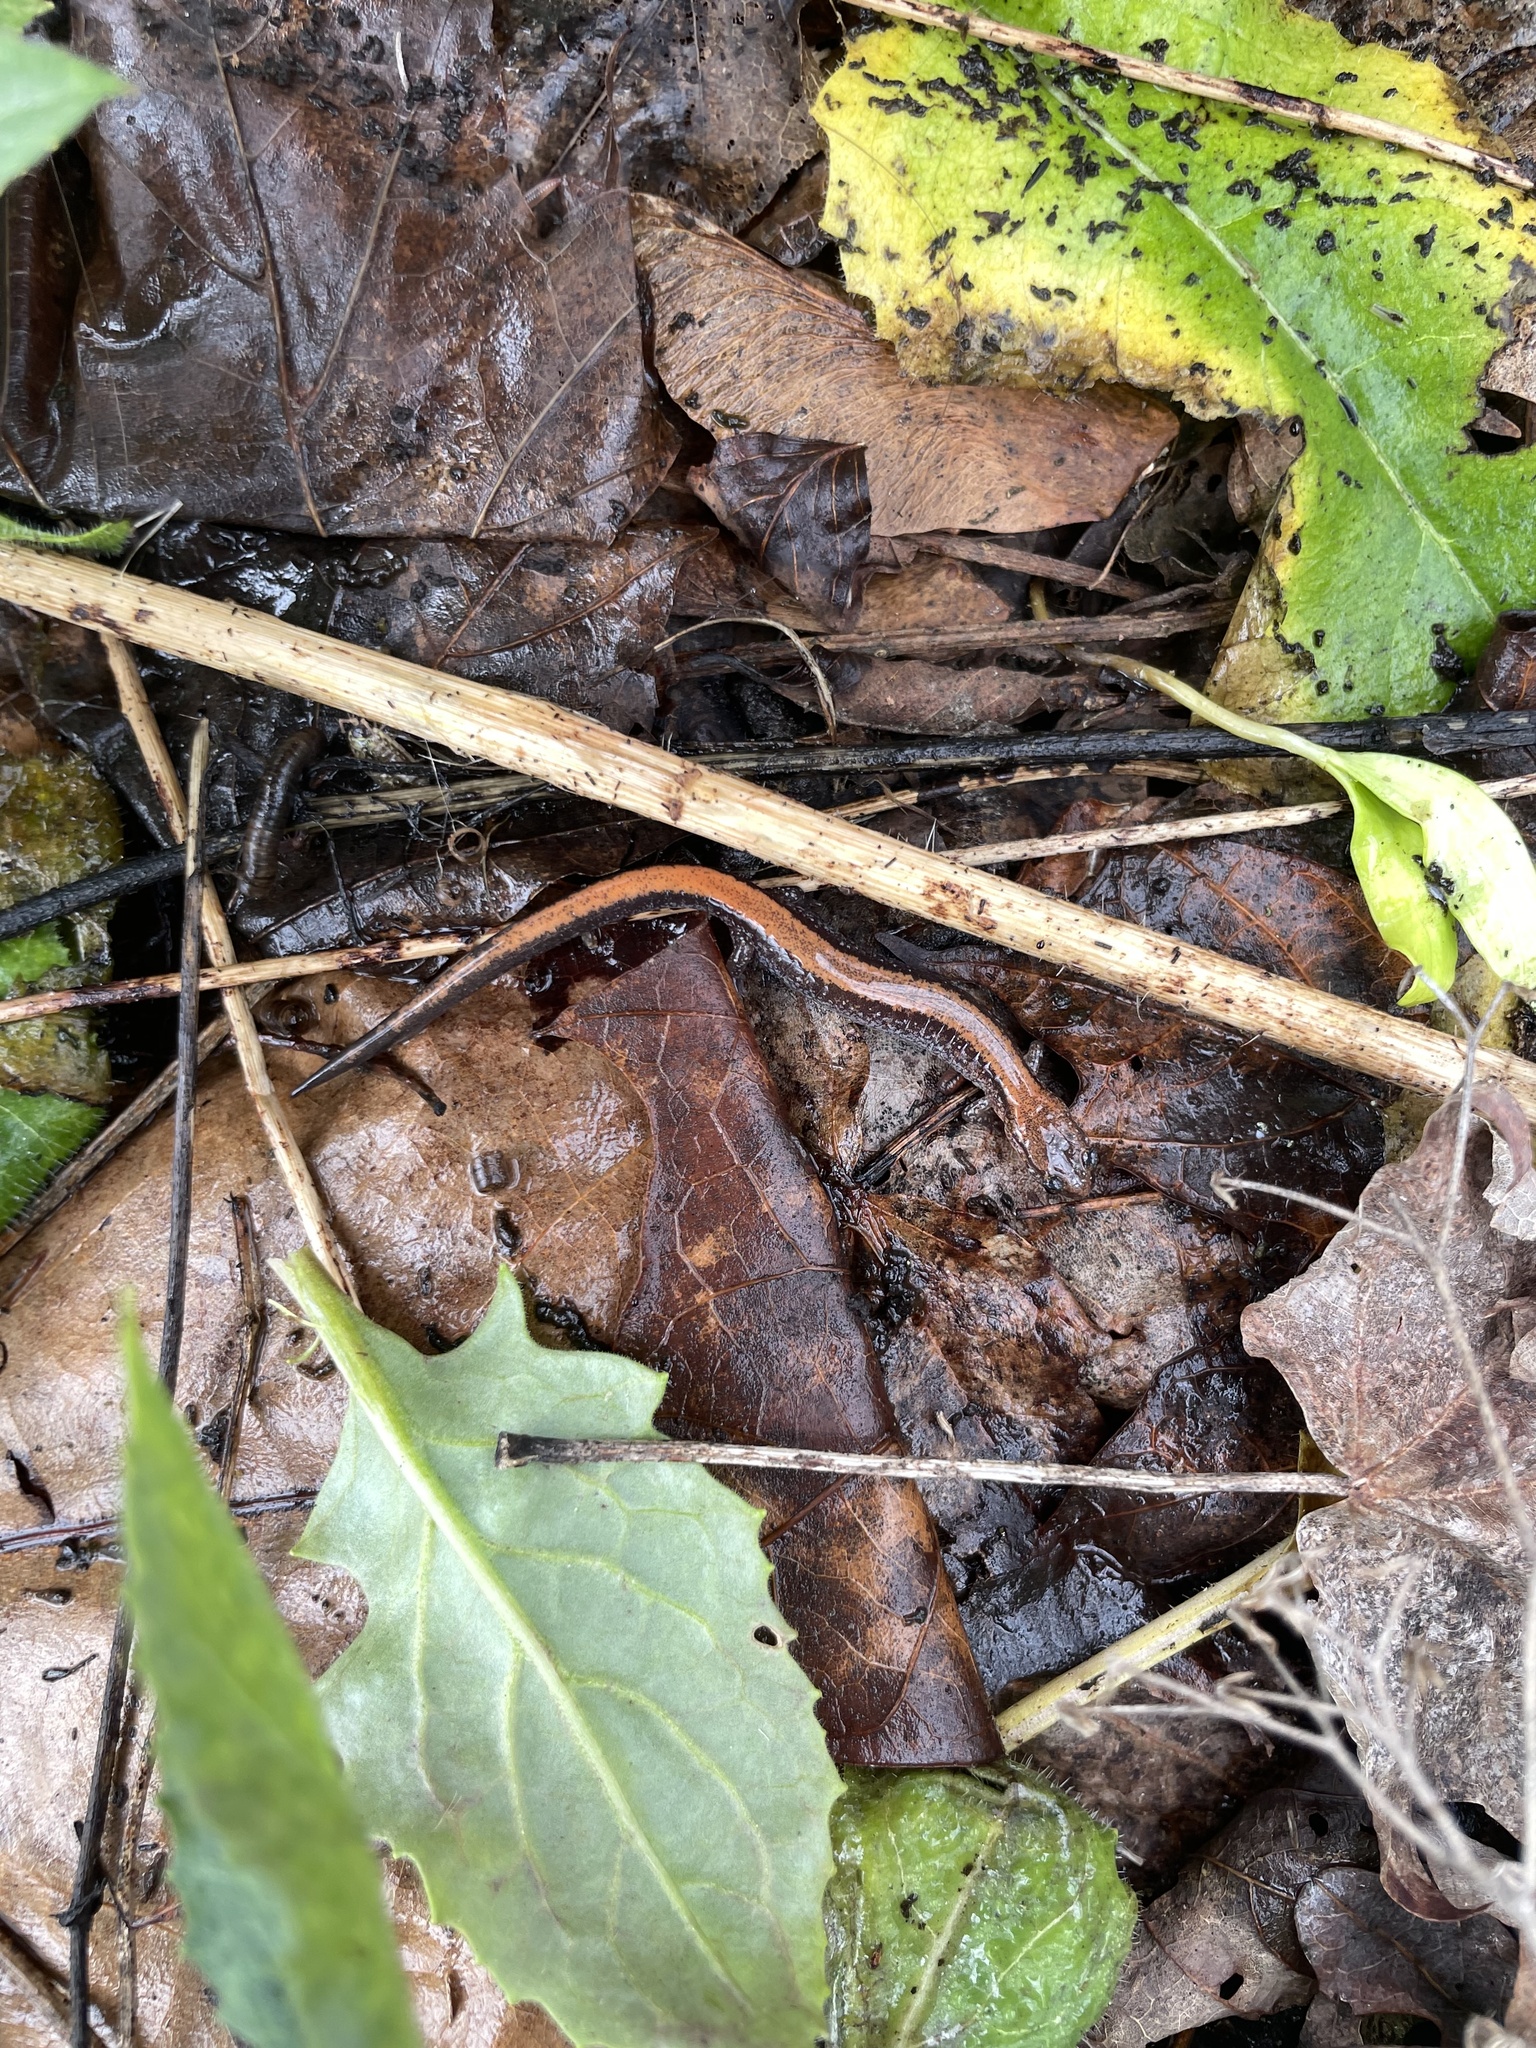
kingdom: Animalia
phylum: Chordata
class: Amphibia
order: Caudata
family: Plethodontidae
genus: Plethodon
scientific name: Plethodon cinereus
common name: Redback salamander
